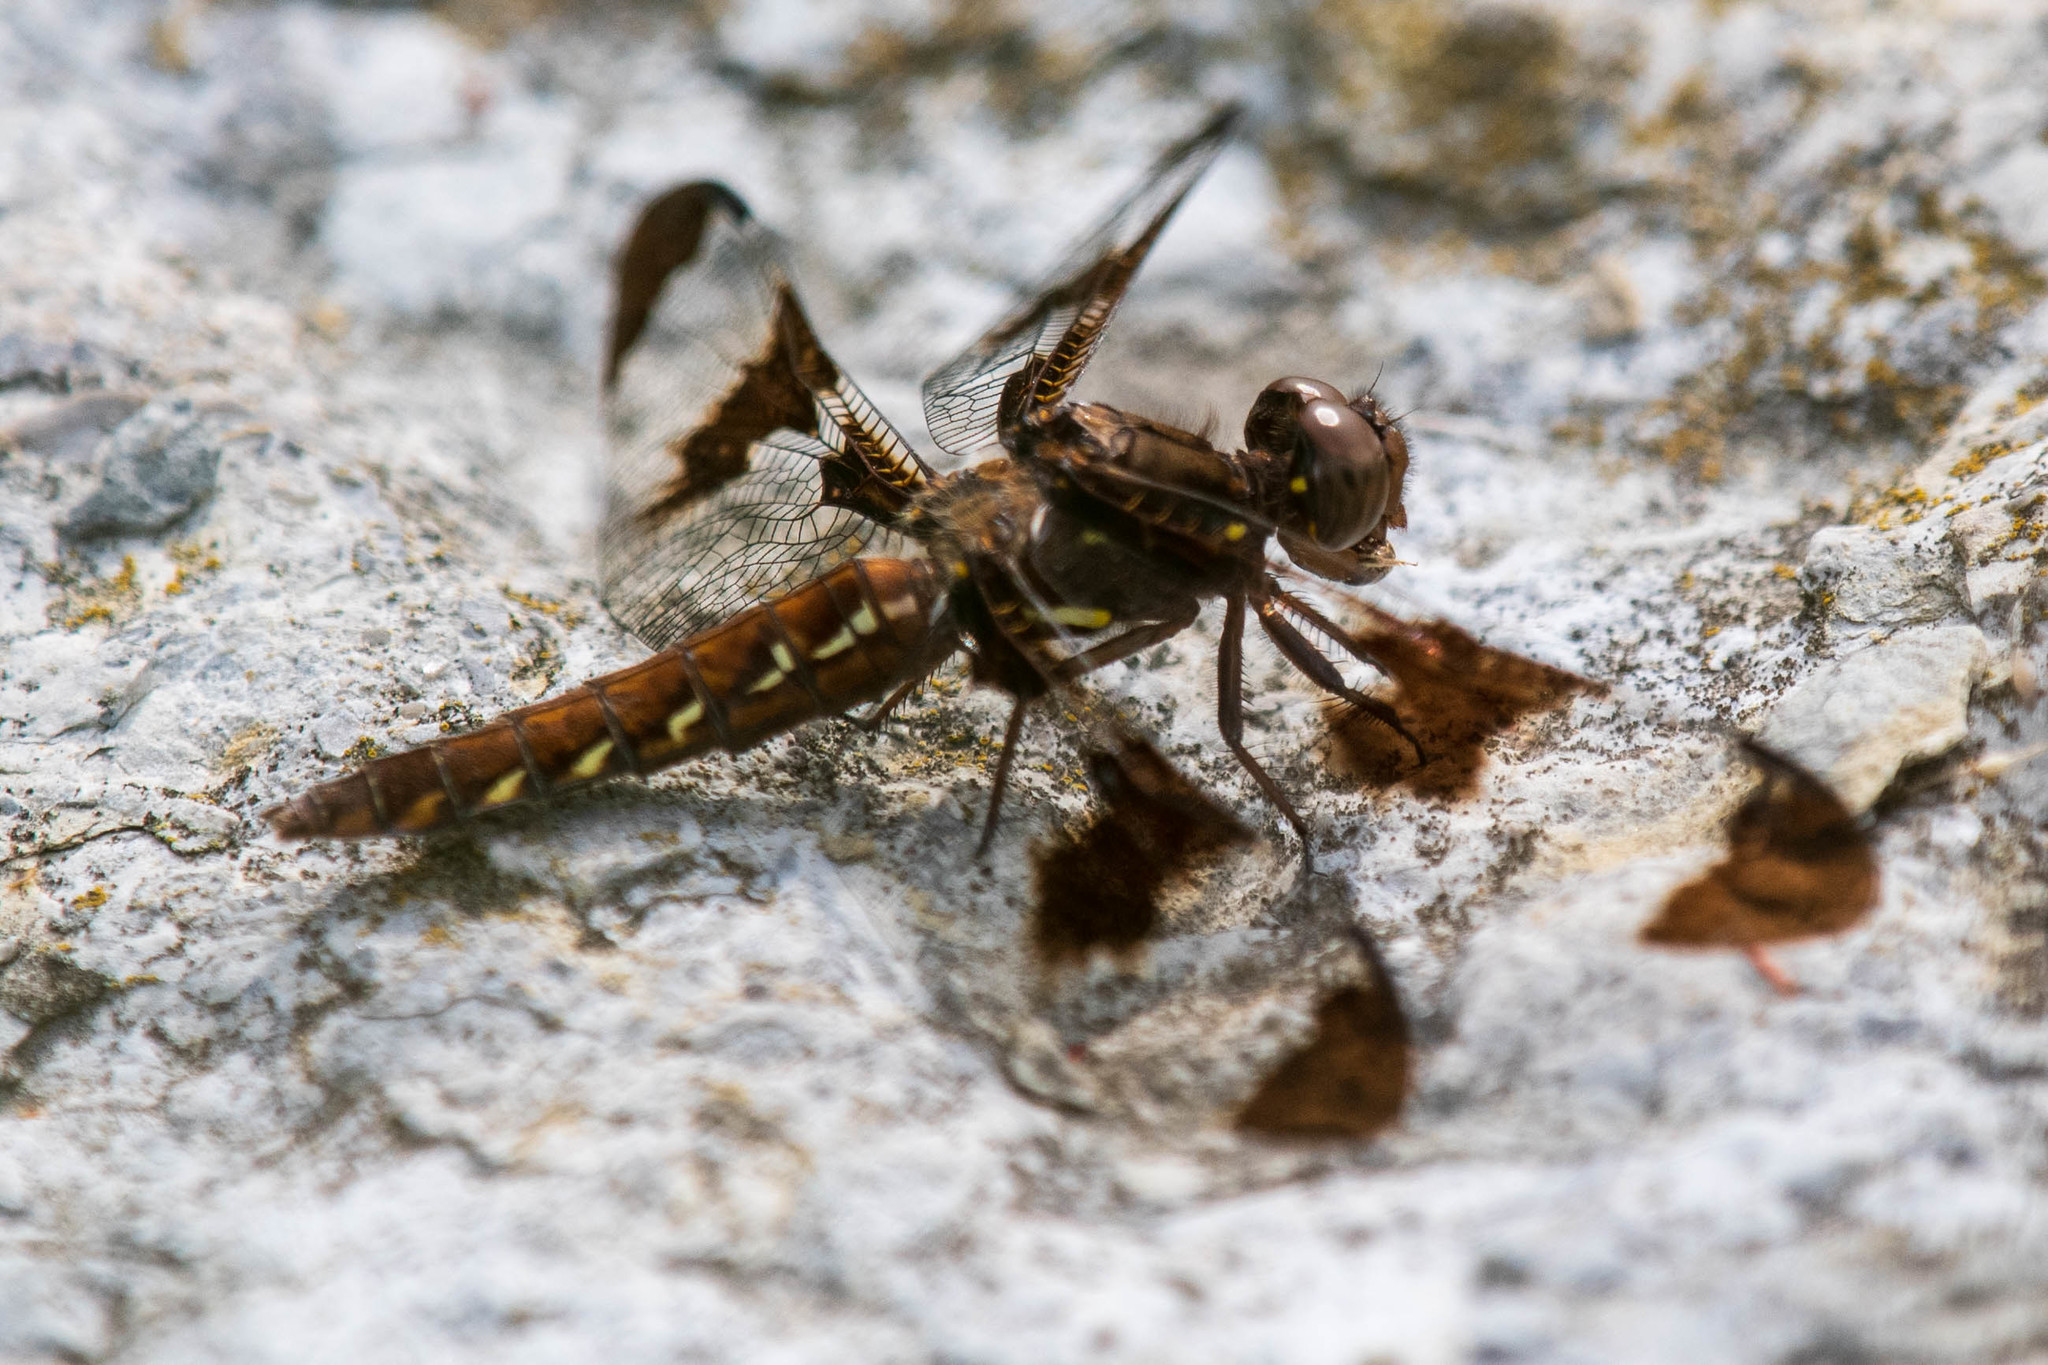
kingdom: Animalia
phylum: Arthropoda
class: Insecta
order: Odonata
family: Libellulidae
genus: Plathemis
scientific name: Plathemis lydia
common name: Common whitetail
